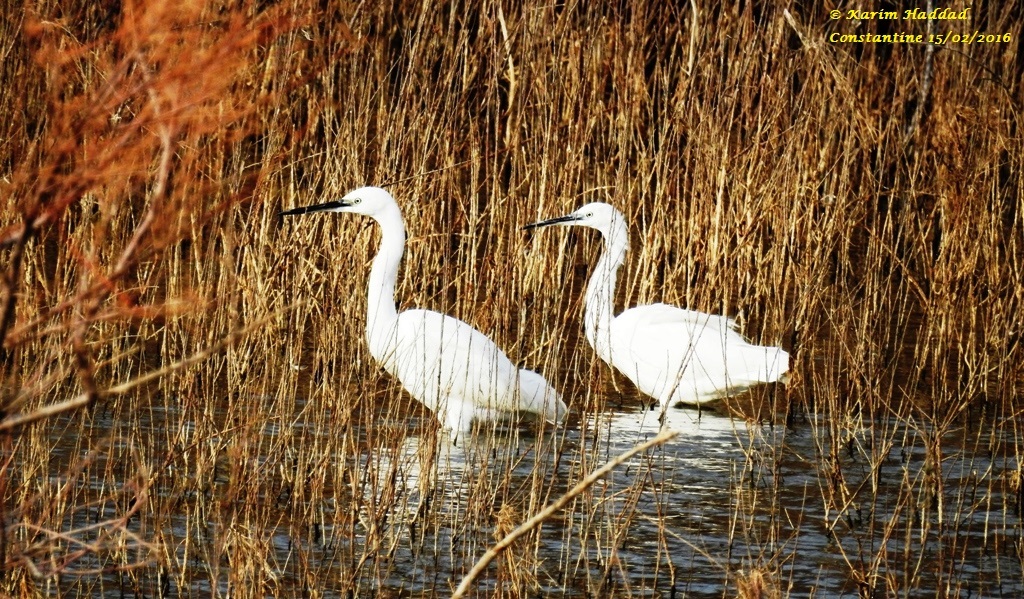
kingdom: Animalia
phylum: Chordata
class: Aves
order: Pelecaniformes
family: Ardeidae
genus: Egretta
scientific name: Egretta garzetta
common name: Little egret
